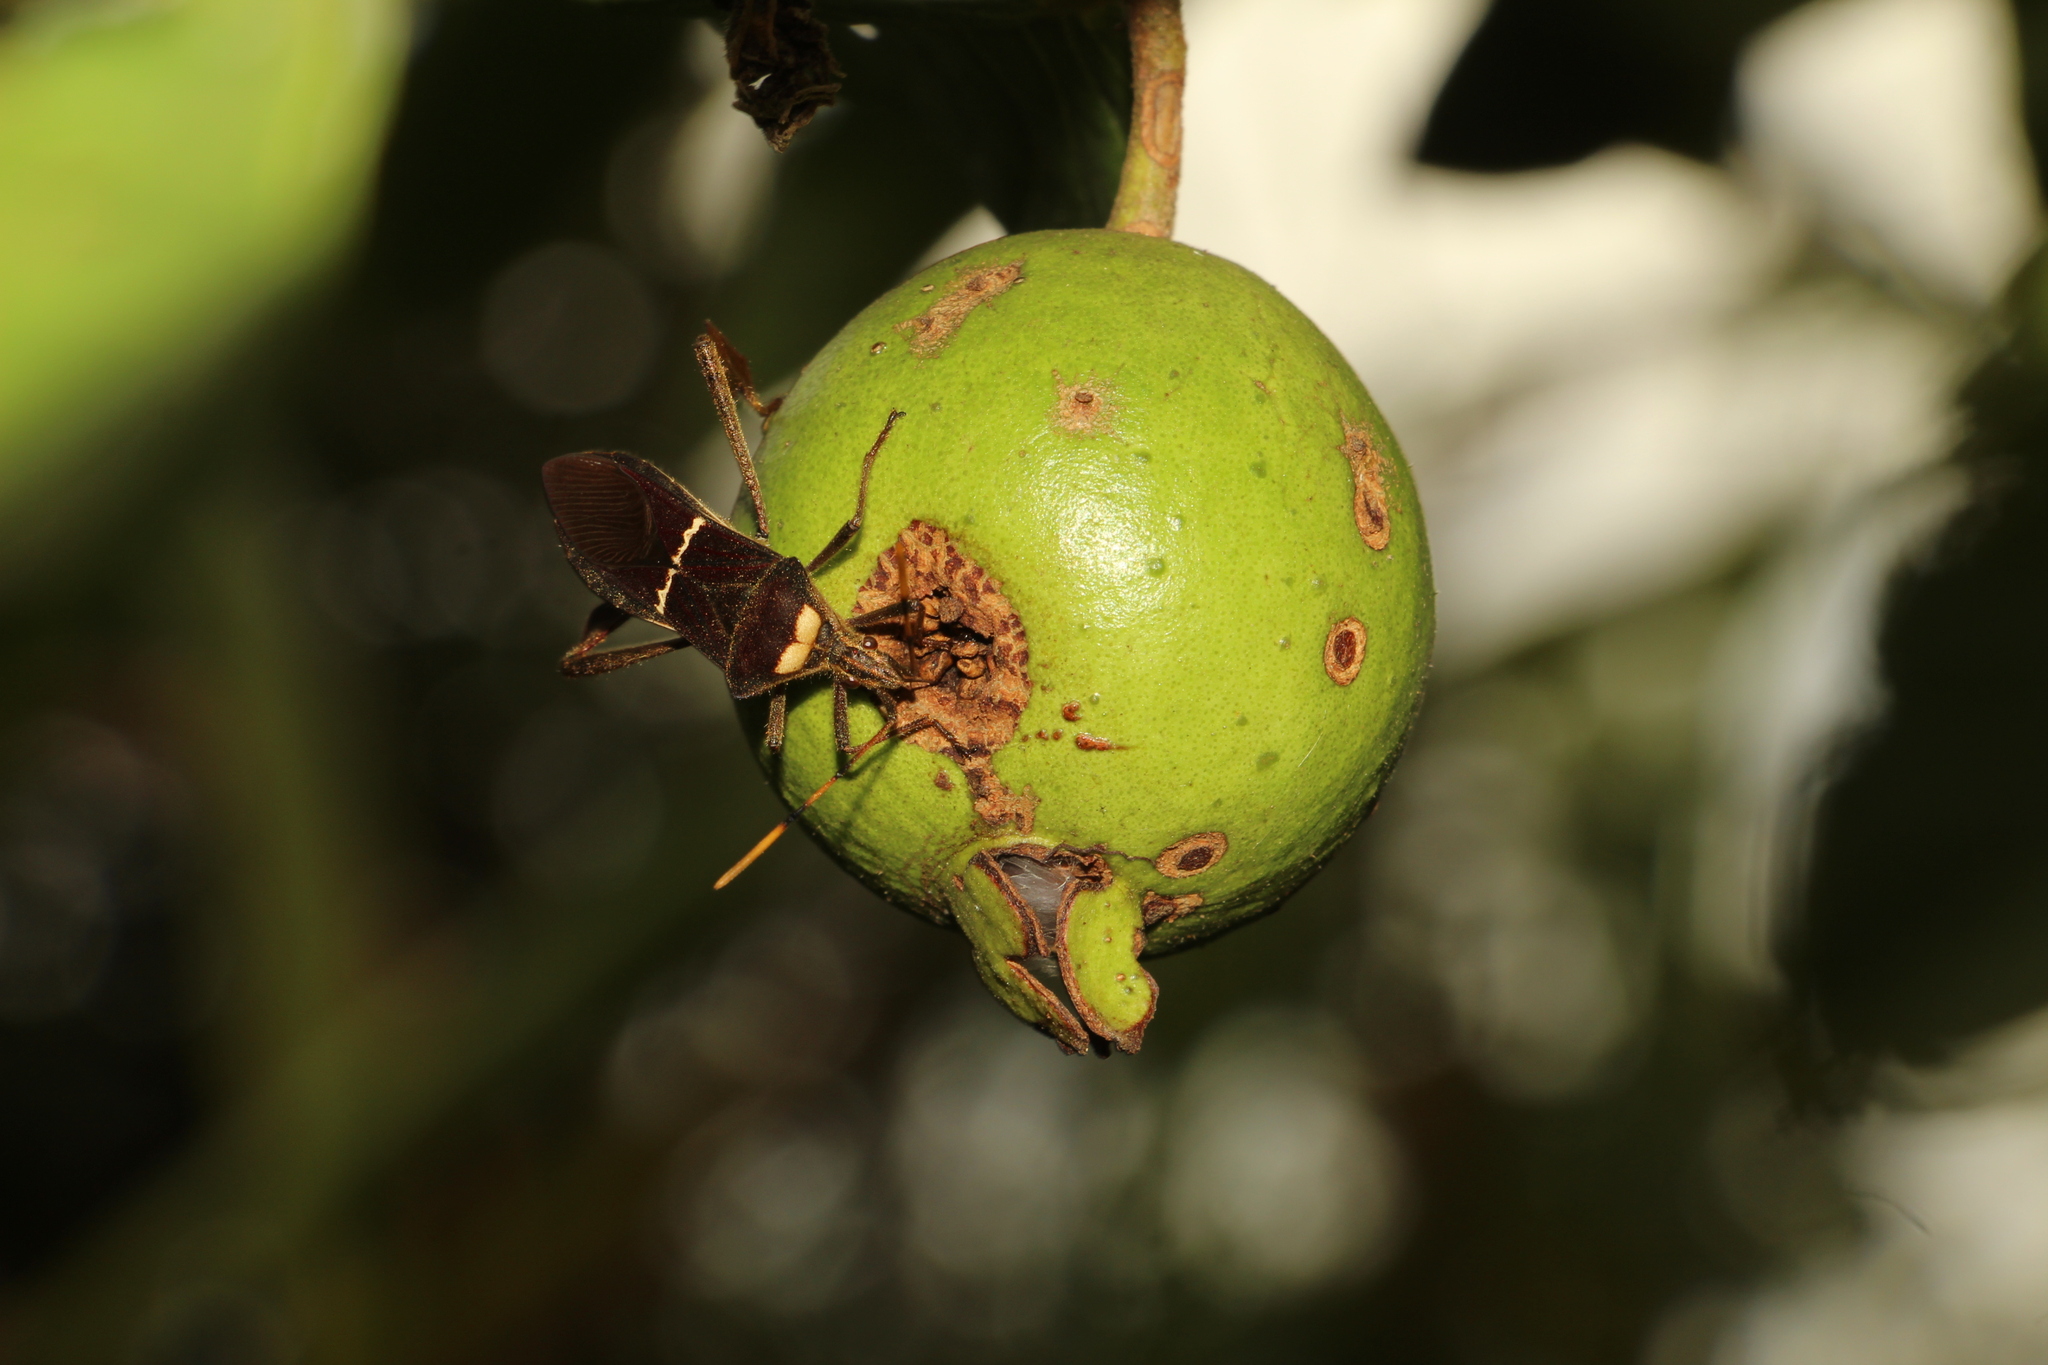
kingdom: Animalia
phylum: Arthropoda
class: Insecta
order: Hemiptera
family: Coreidae
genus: Leptoglossus
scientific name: Leptoglossus macrophyllus
